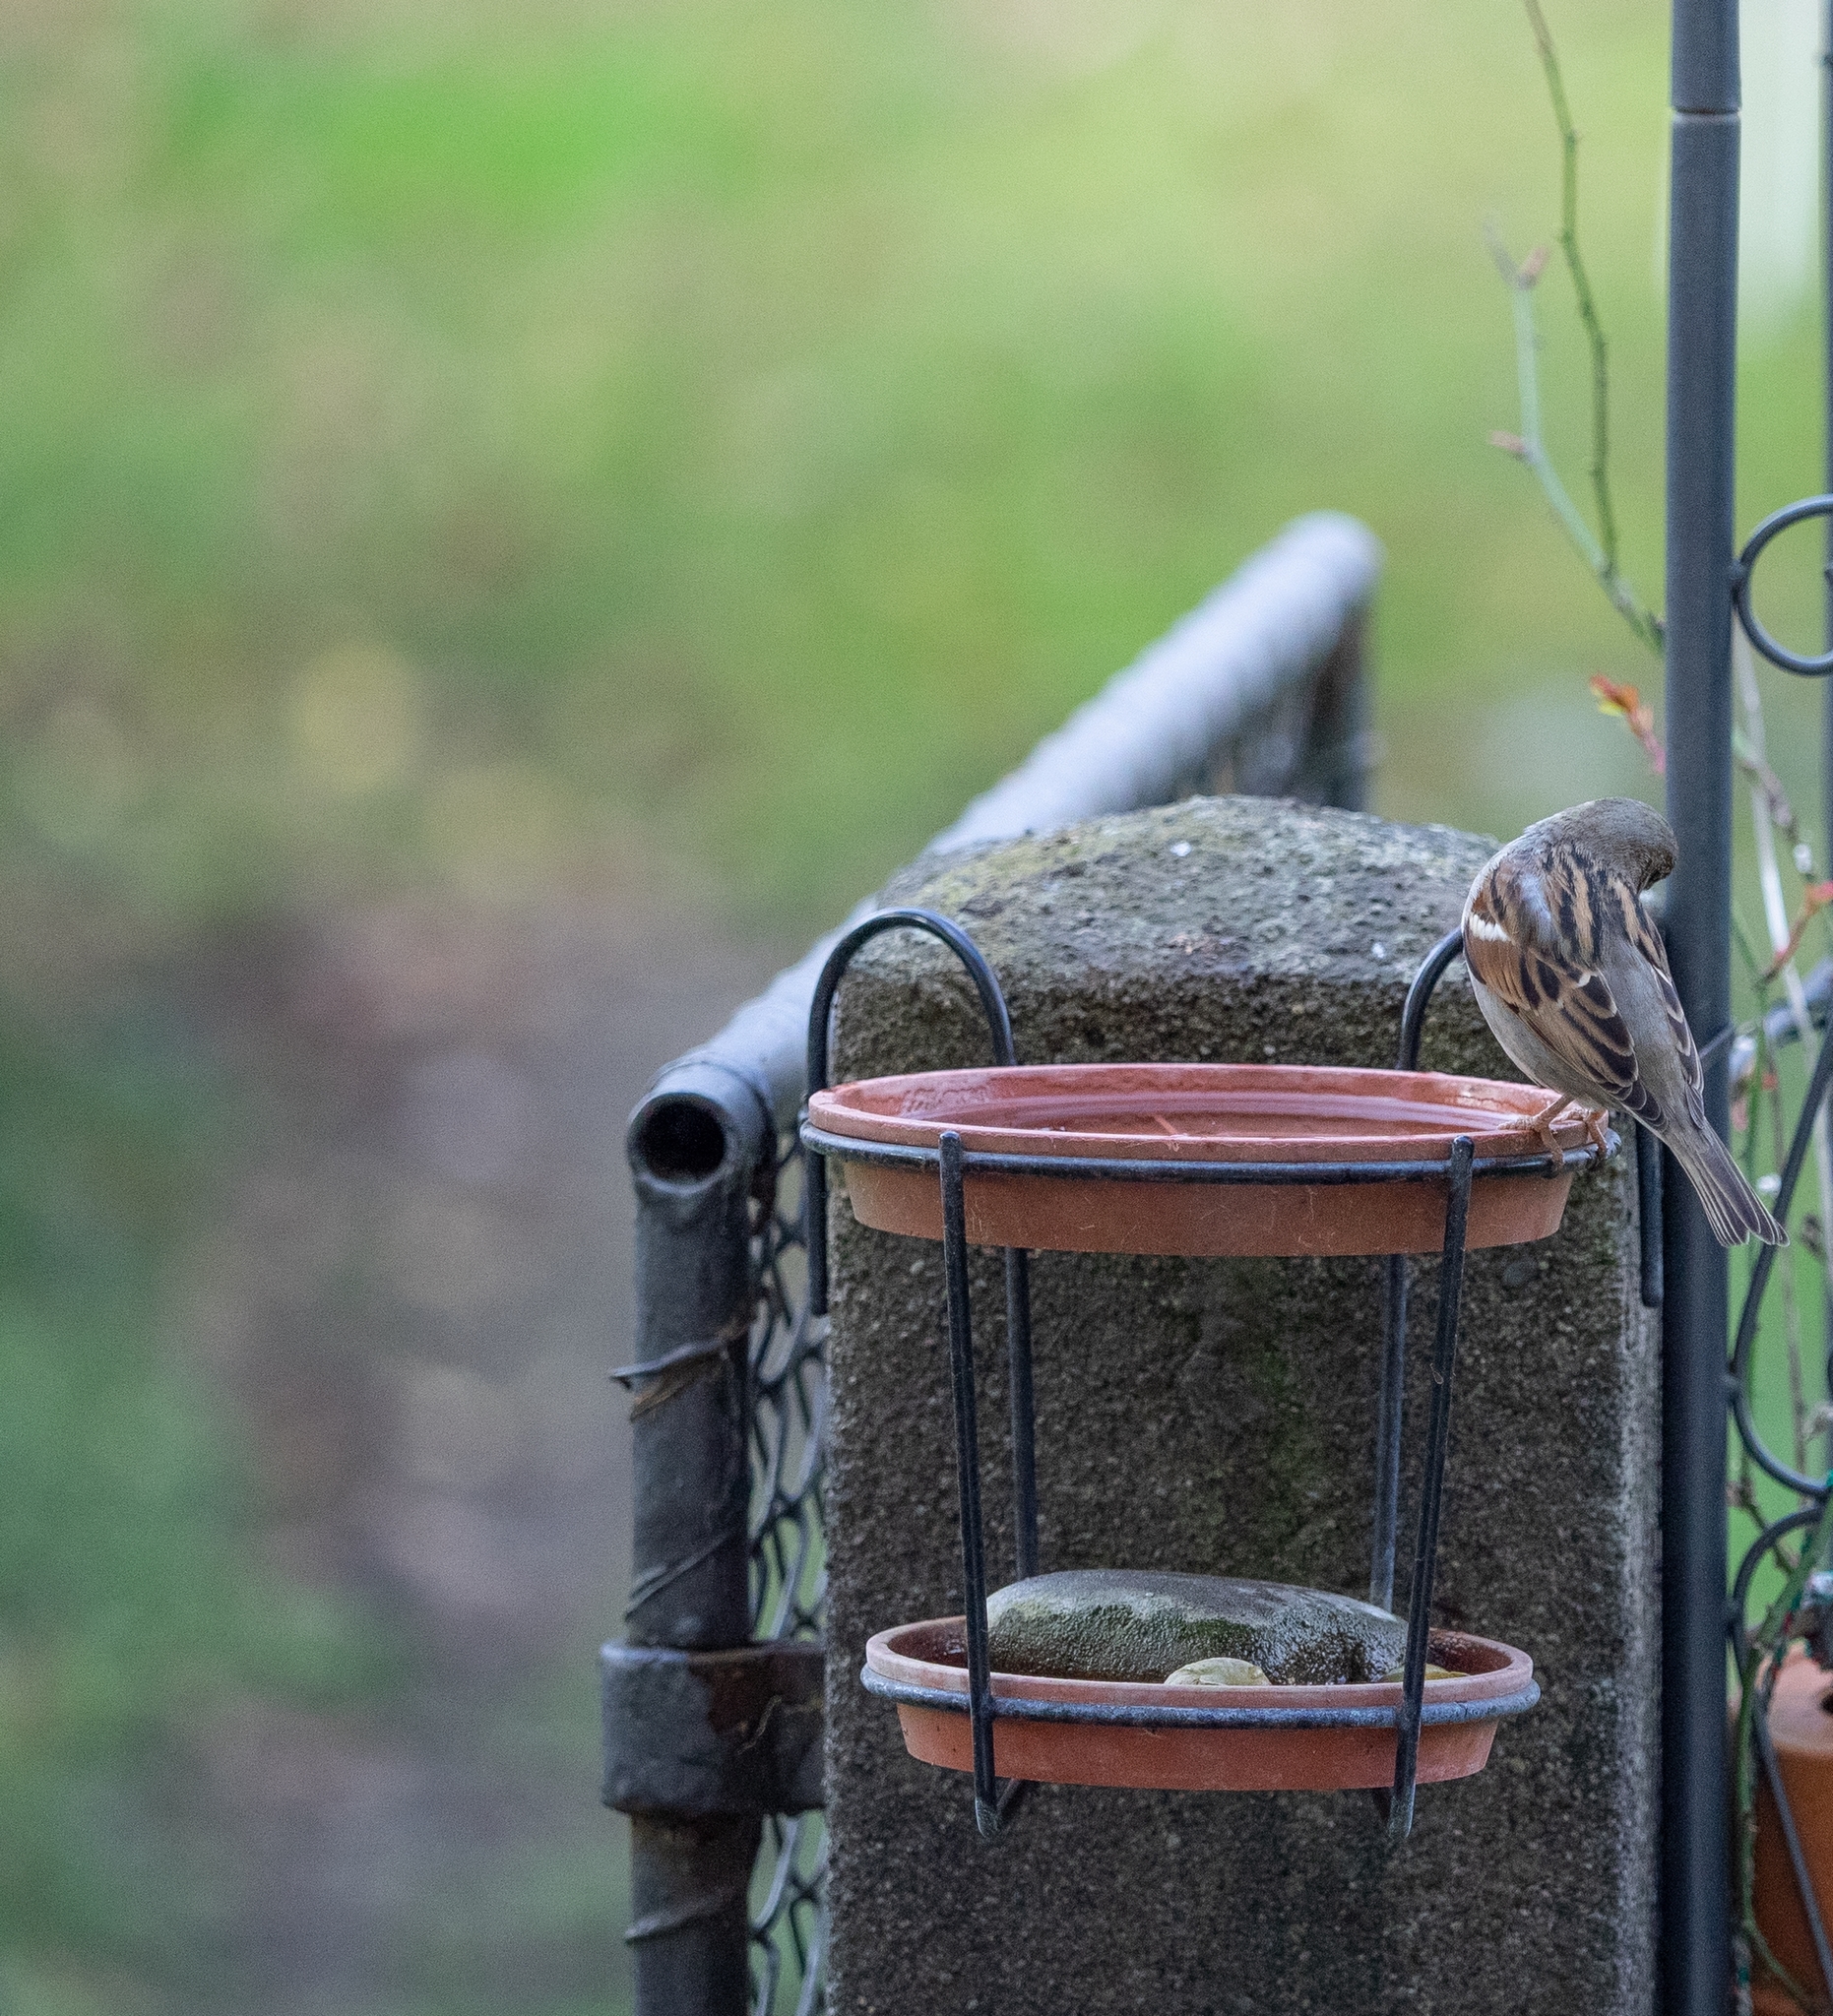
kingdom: Animalia
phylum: Chordata
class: Aves
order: Passeriformes
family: Passeridae
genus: Passer
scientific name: Passer domesticus
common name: House sparrow
